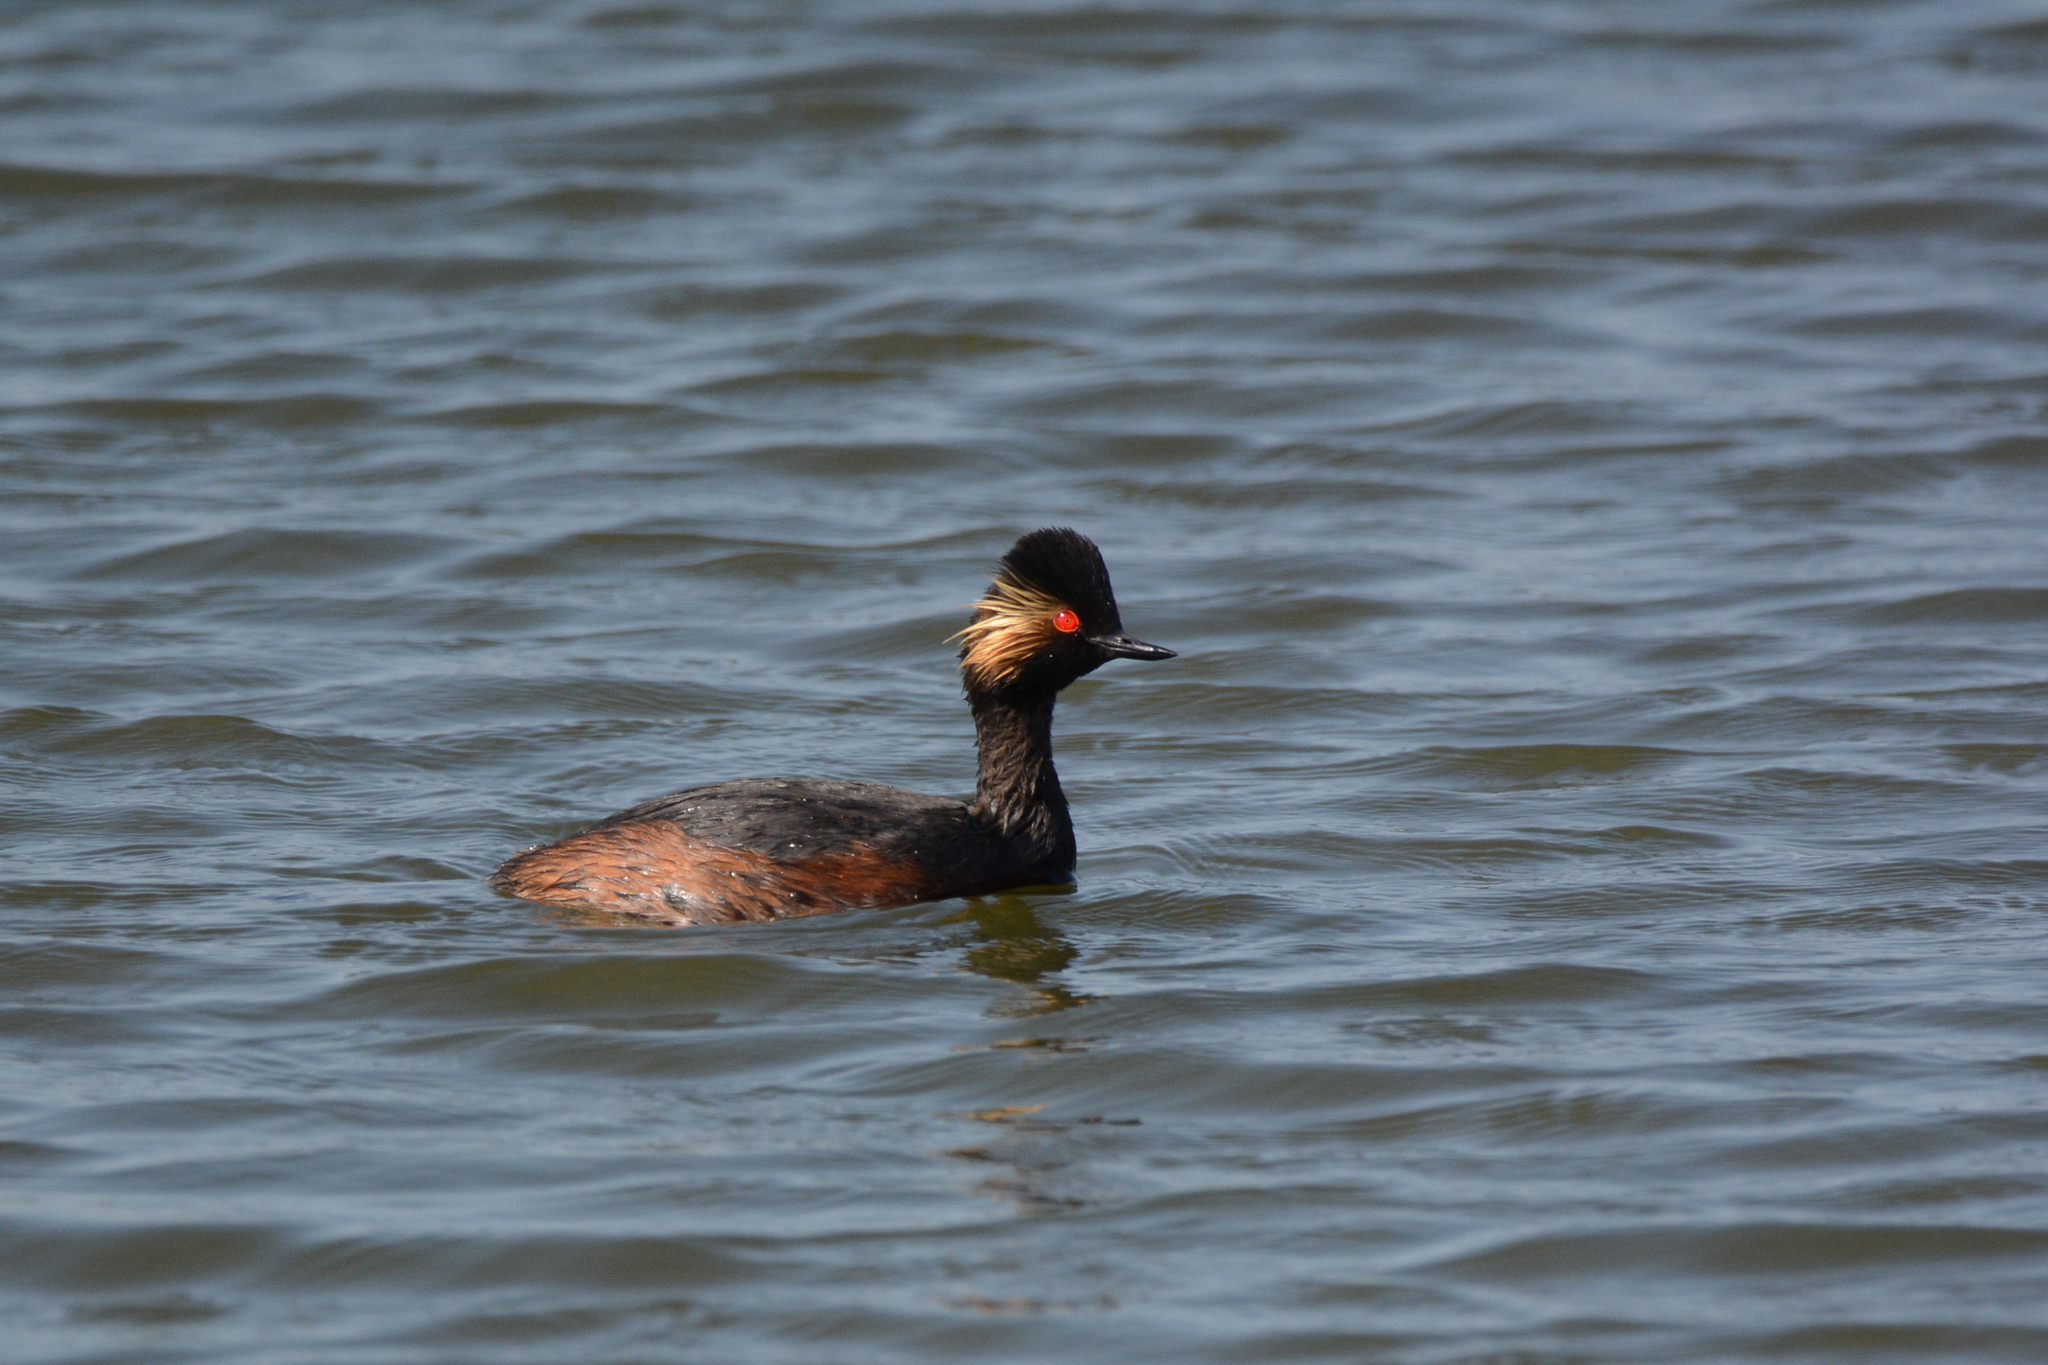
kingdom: Animalia
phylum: Chordata
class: Aves
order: Podicipediformes
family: Podicipedidae
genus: Podiceps
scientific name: Podiceps nigricollis
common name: Black-necked grebe
